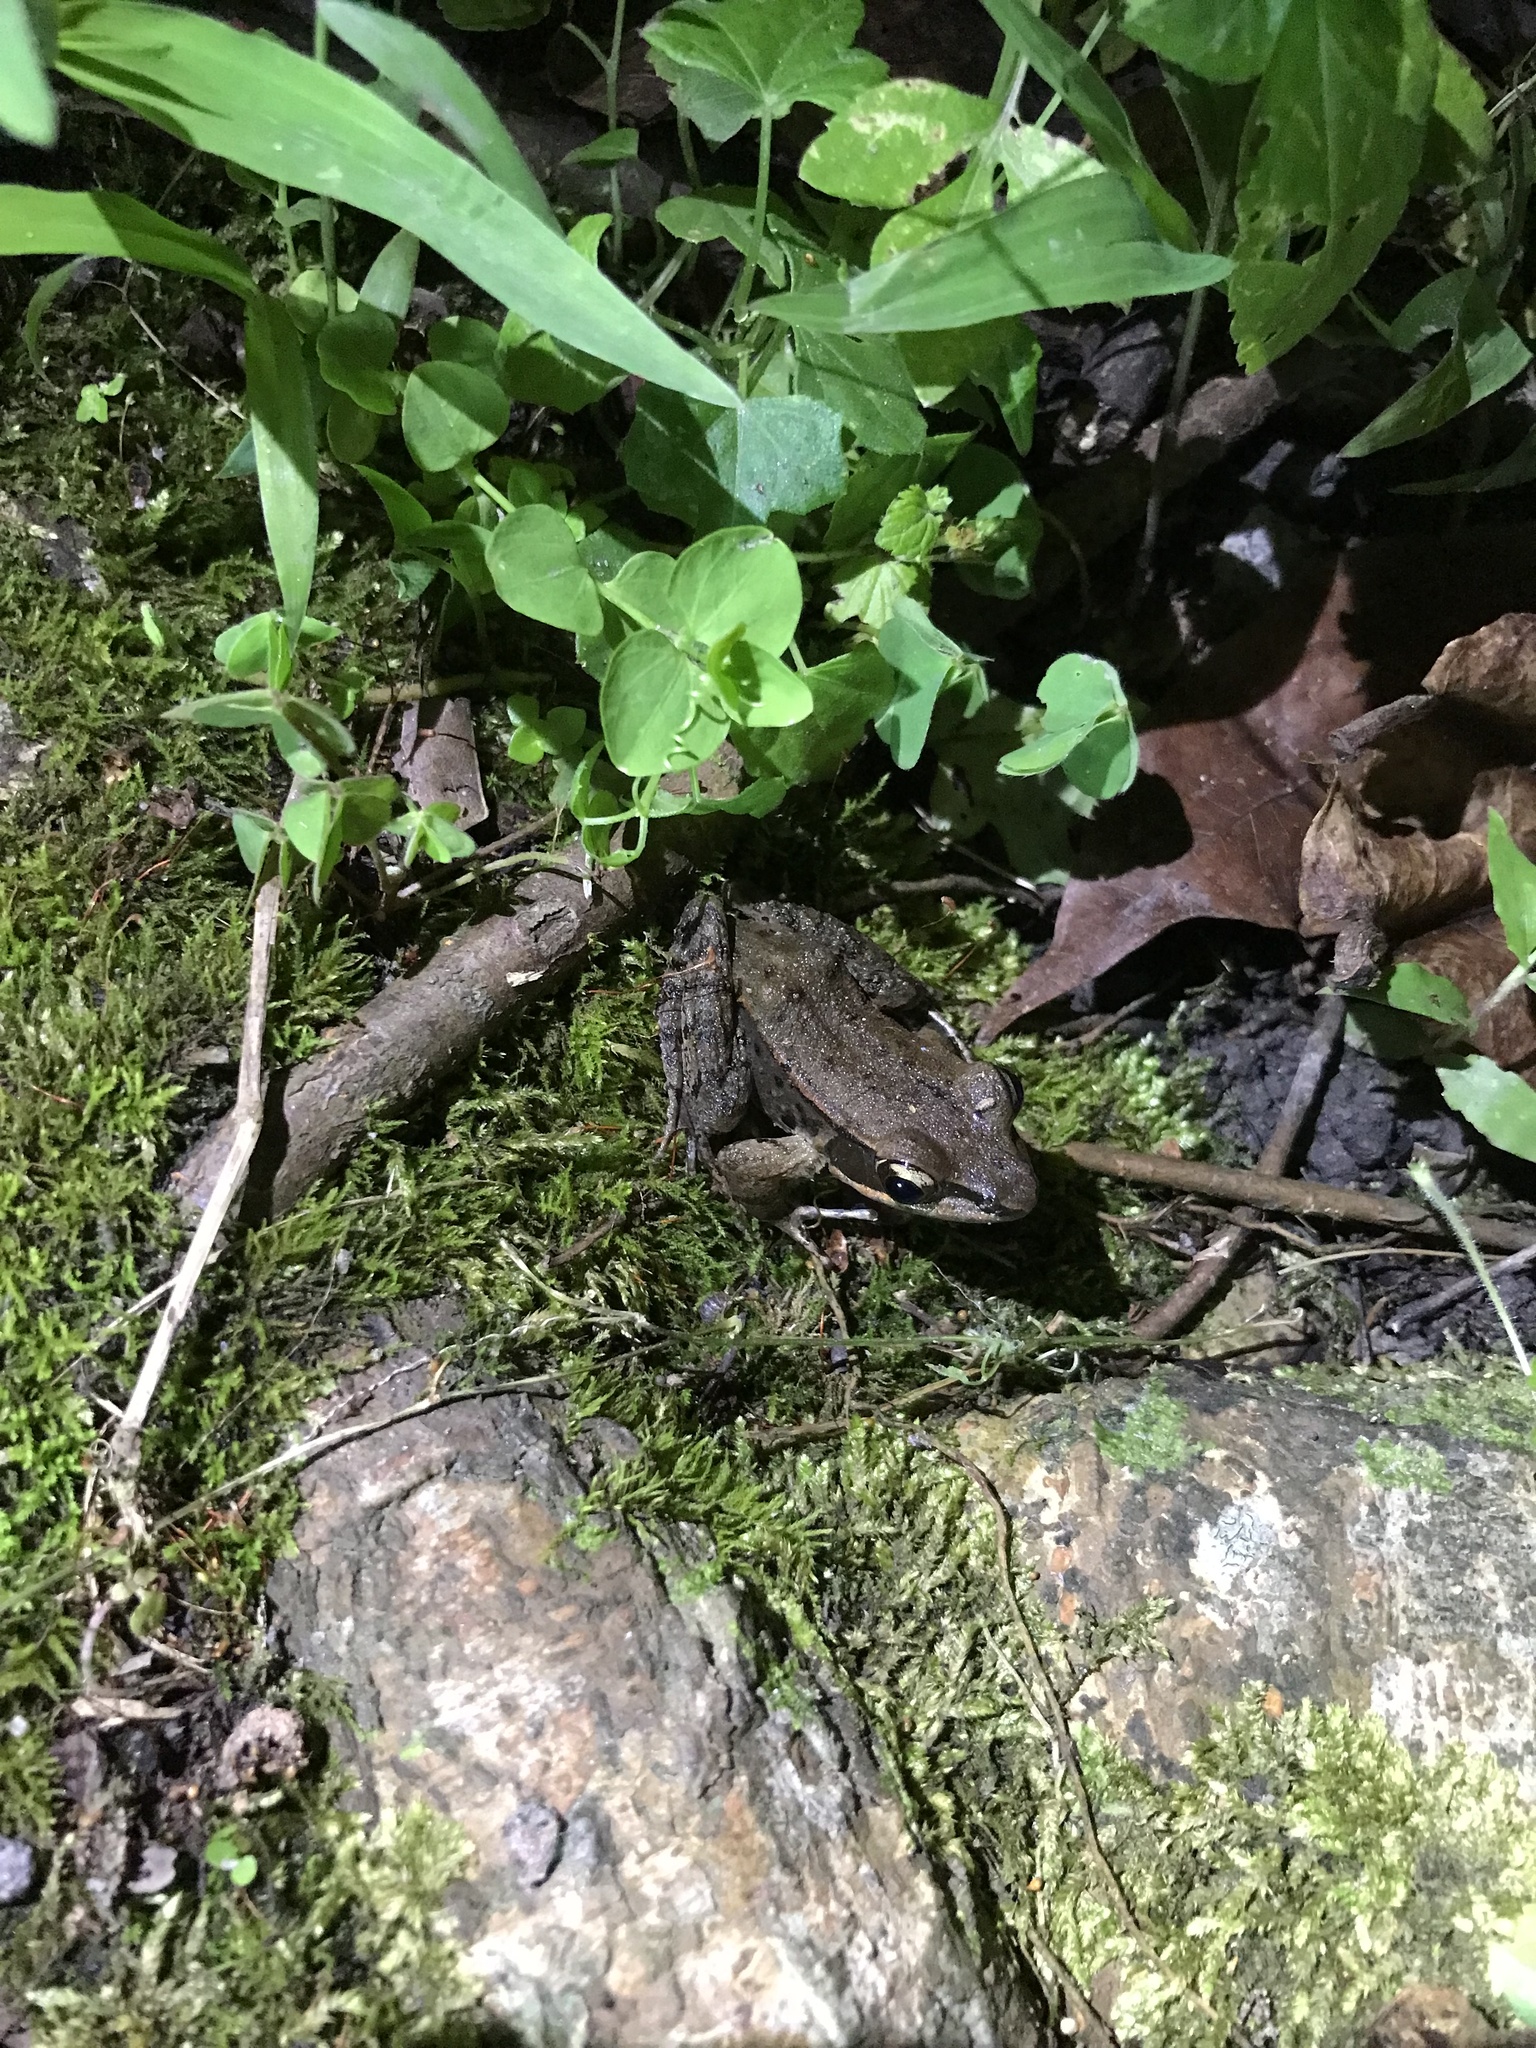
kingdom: Animalia
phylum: Chordata
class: Amphibia
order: Anura
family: Ranidae
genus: Hylarana
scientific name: Hylarana latouchii
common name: Broad-folded frog
